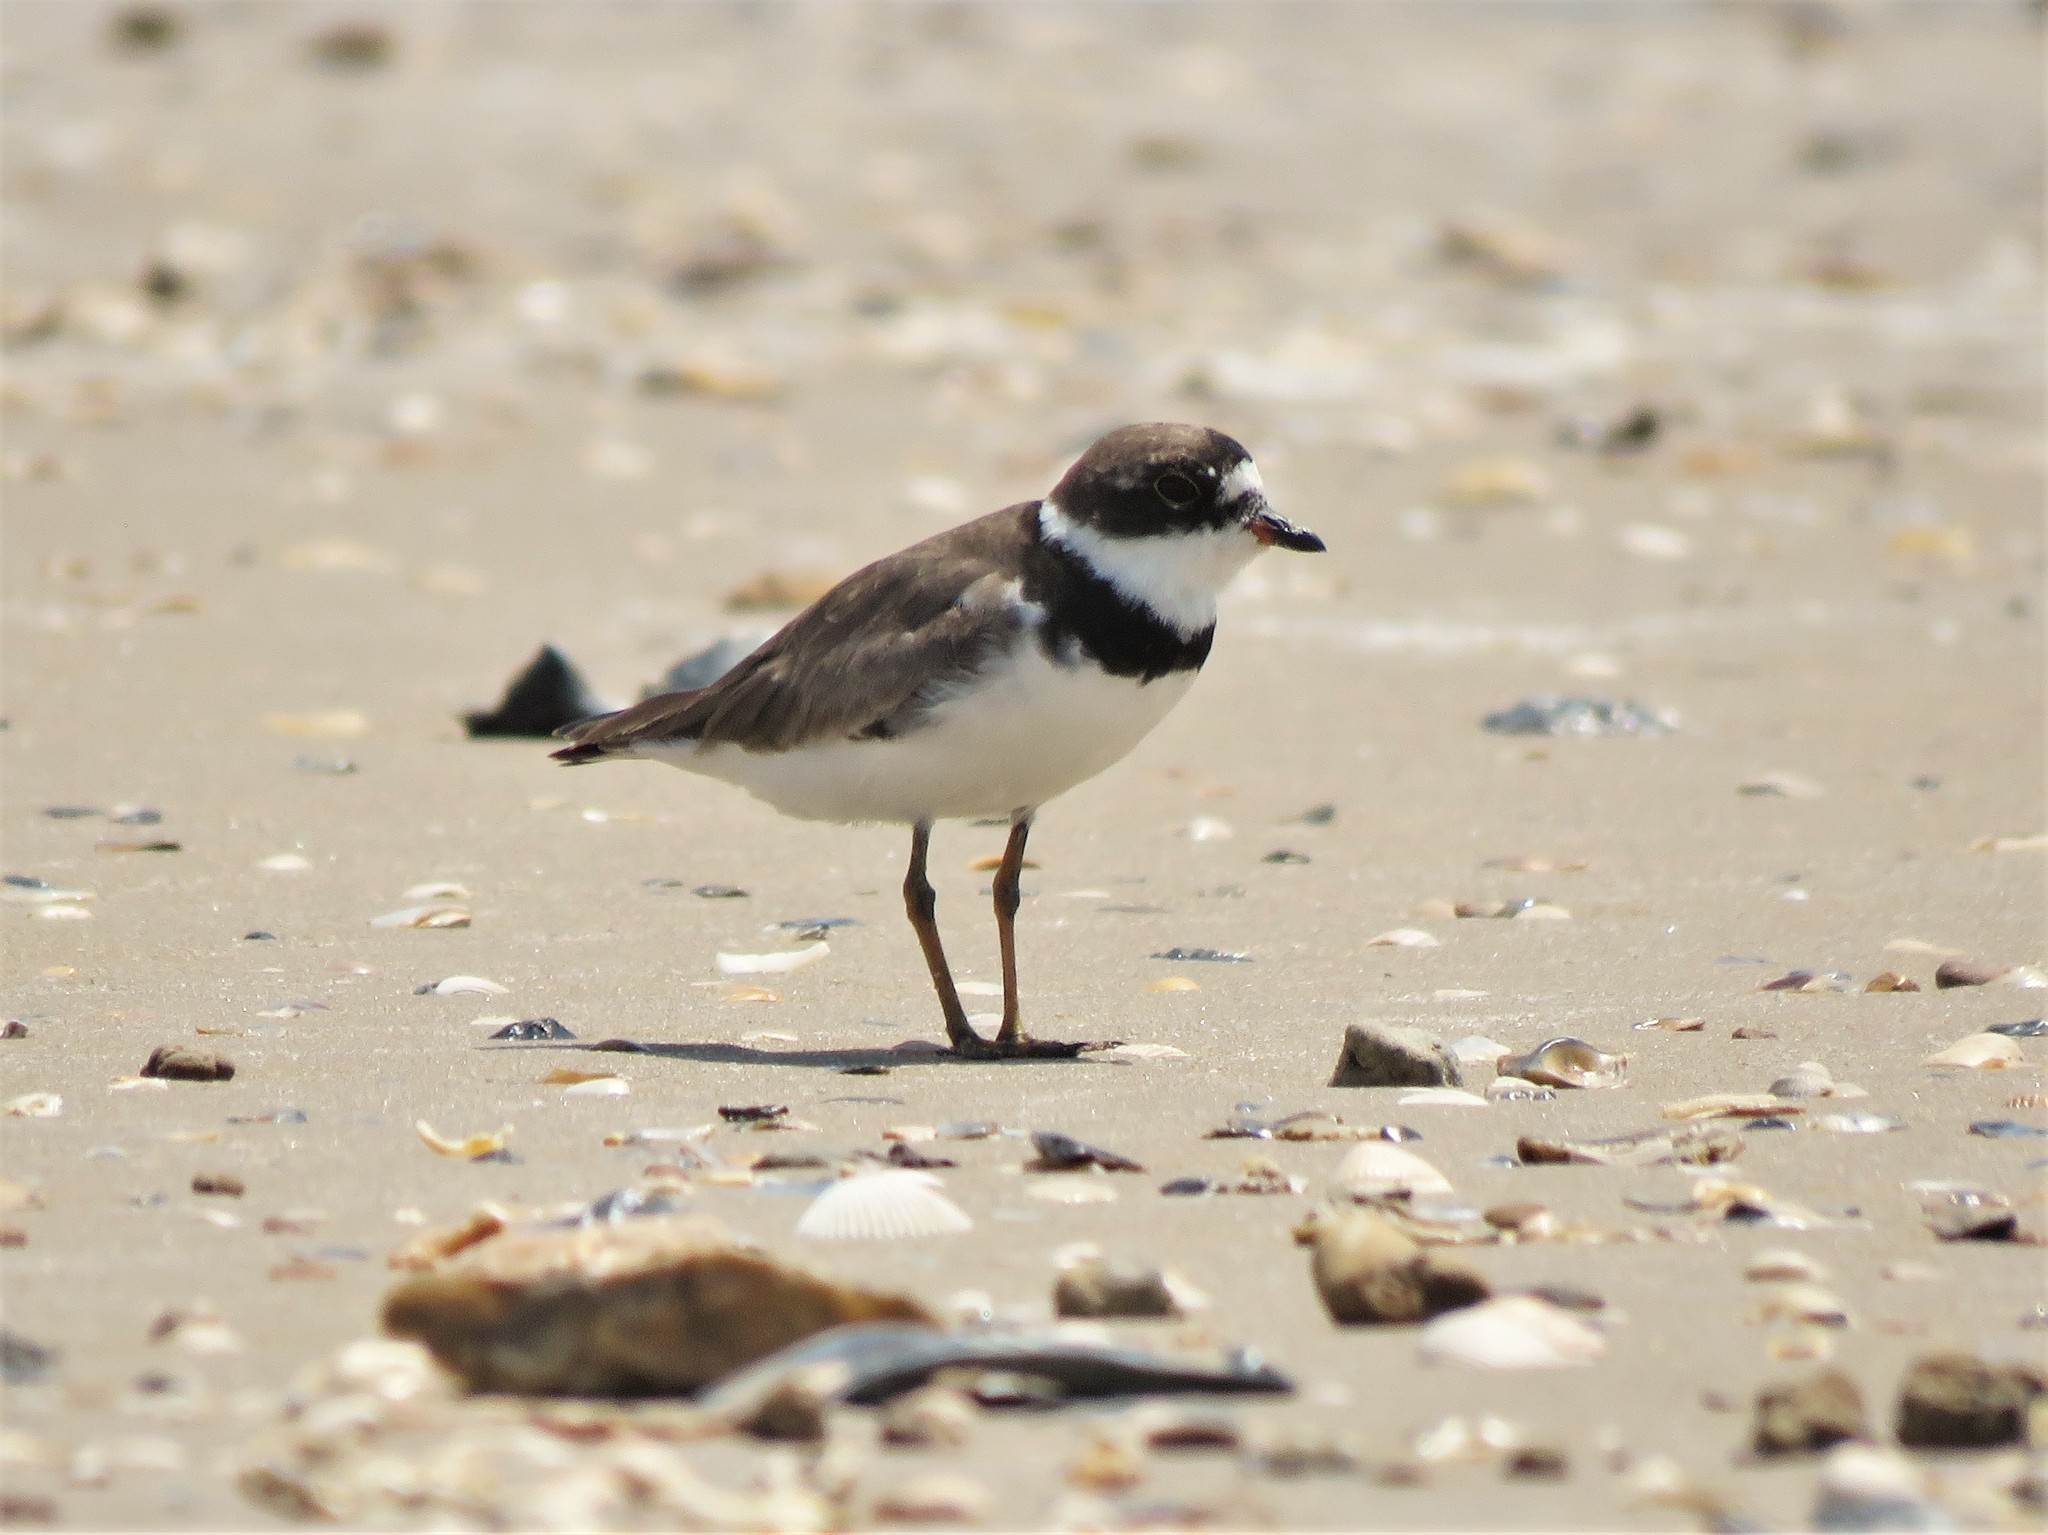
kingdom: Animalia
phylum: Chordata
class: Aves
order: Charadriiformes
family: Charadriidae
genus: Charadrius
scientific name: Charadrius semipalmatus
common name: Semipalmated plover
